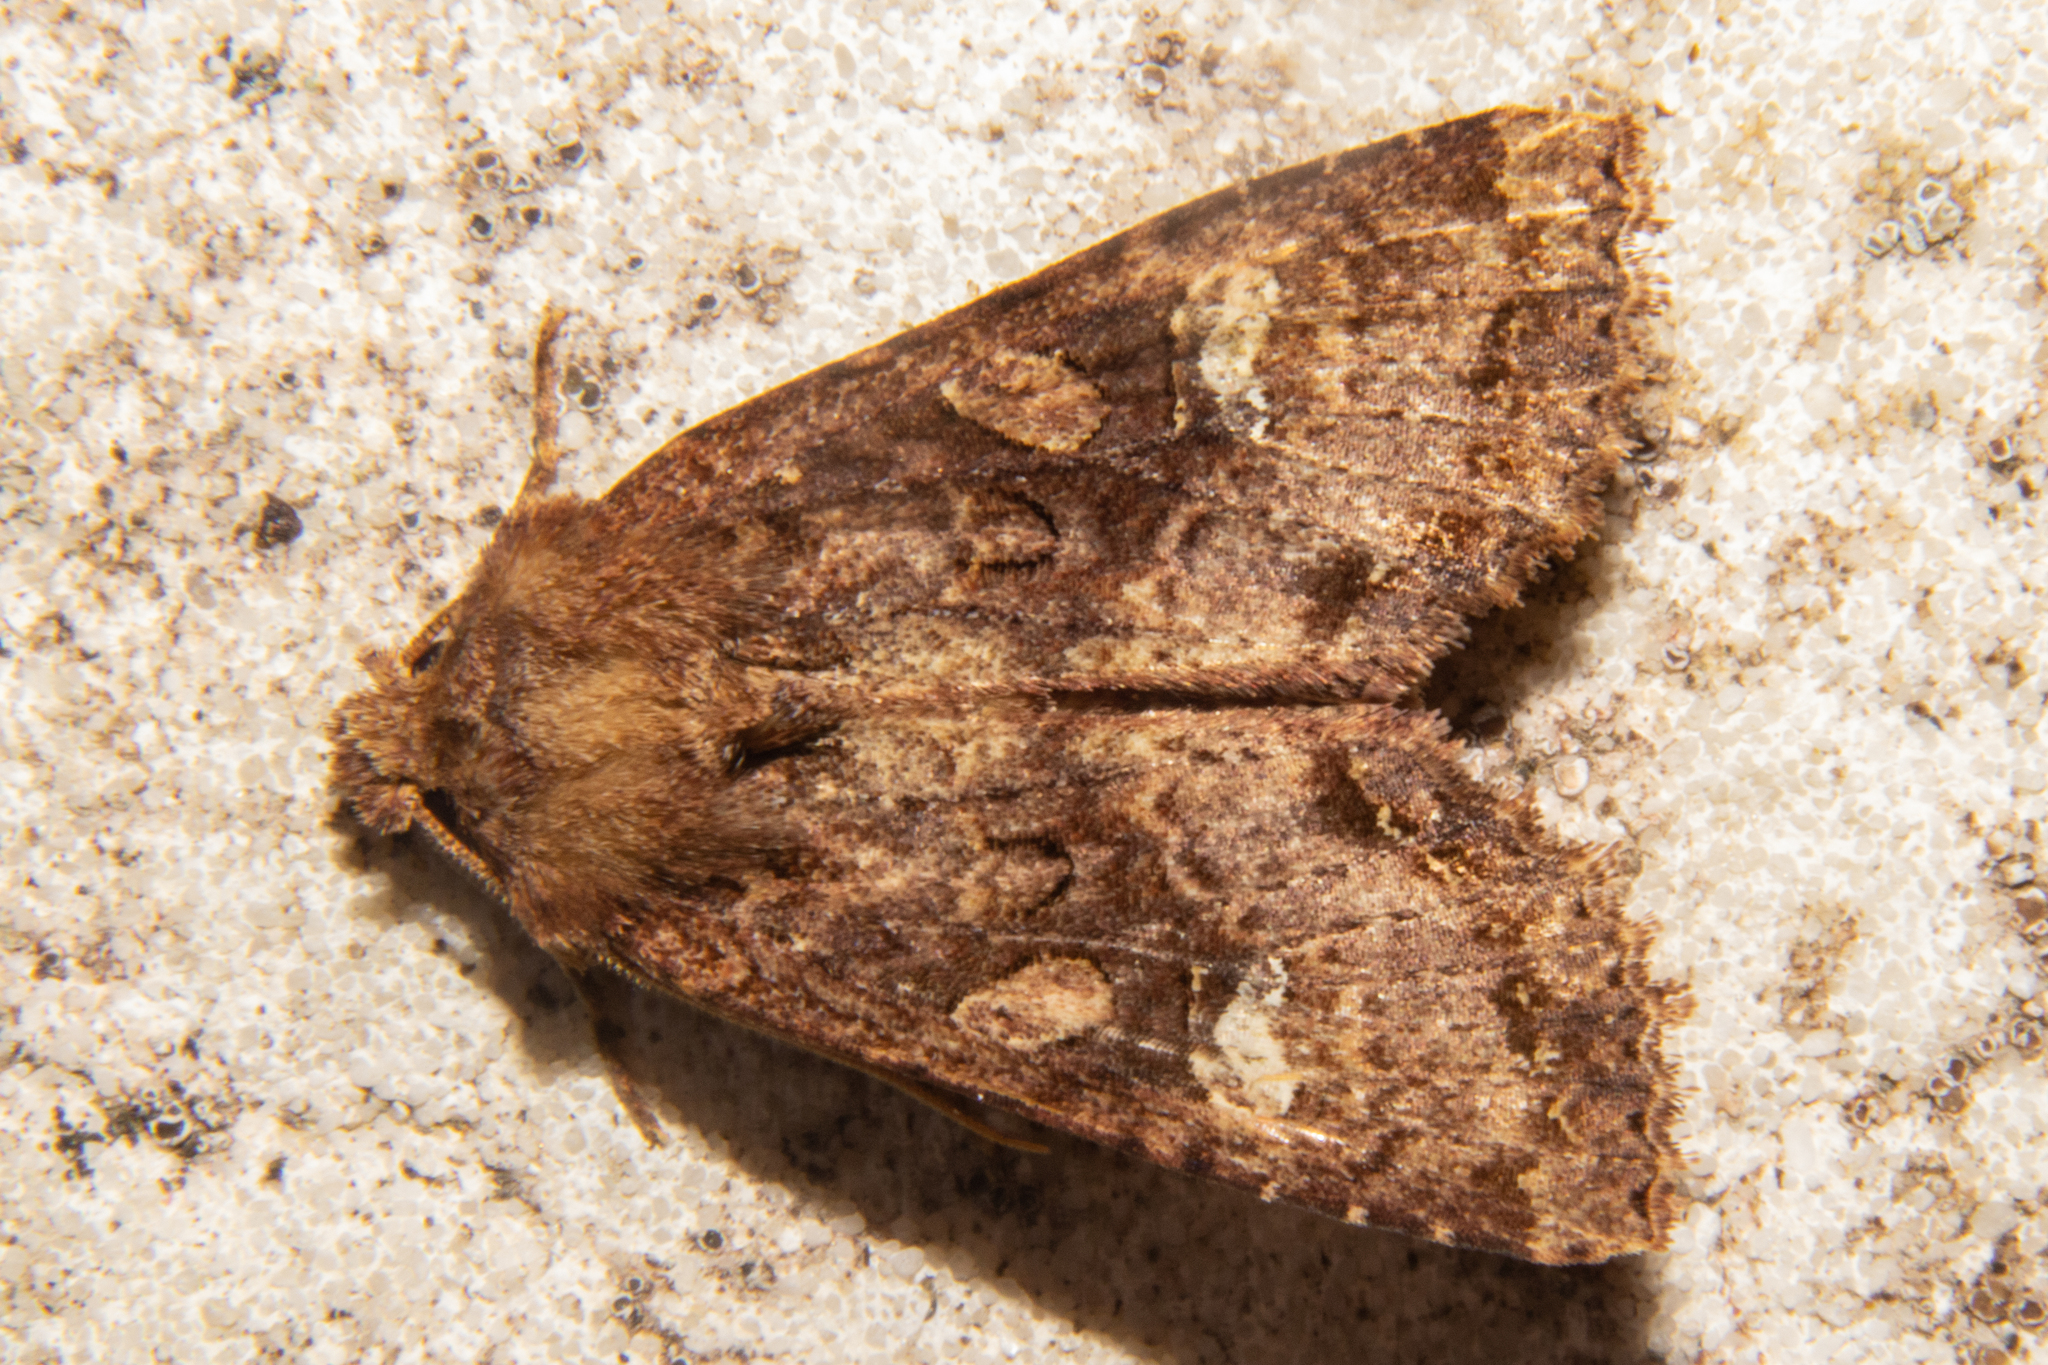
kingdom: Animalia
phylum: Arthropoda
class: Insecta
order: Lepidoptera
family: Noctuidae
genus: Meterana
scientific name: Meterana
